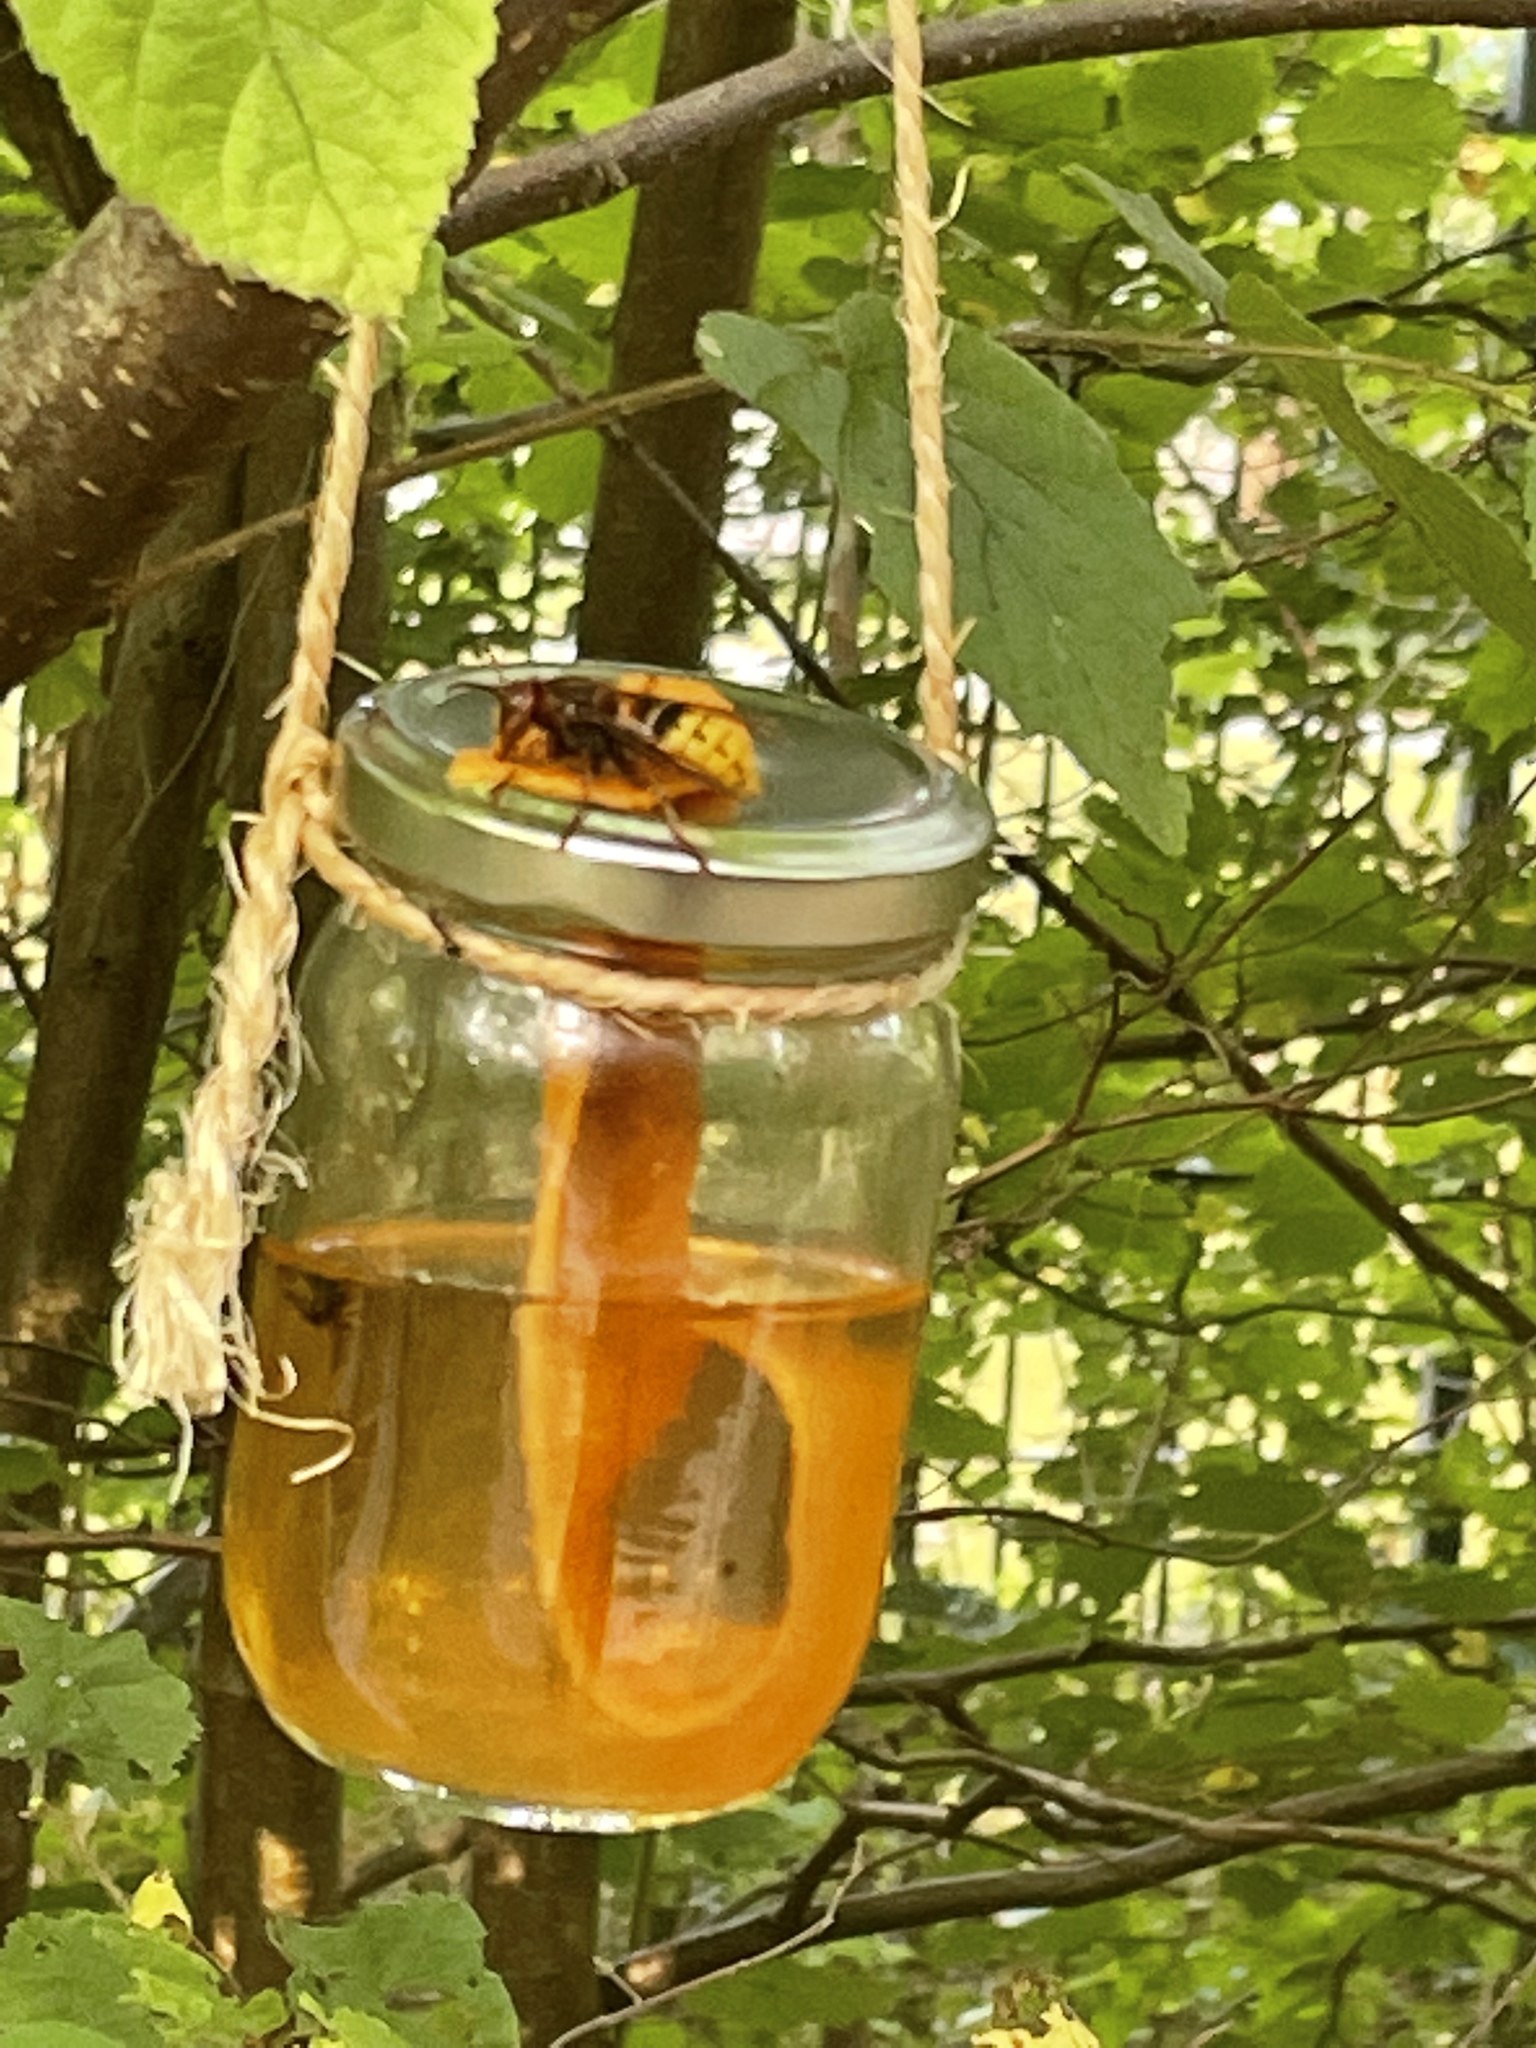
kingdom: Animalia
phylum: Arthropoda
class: Insecta
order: Hymenoptera
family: Vespidae
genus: Vespa
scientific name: Vespa crabro
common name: Hornet
